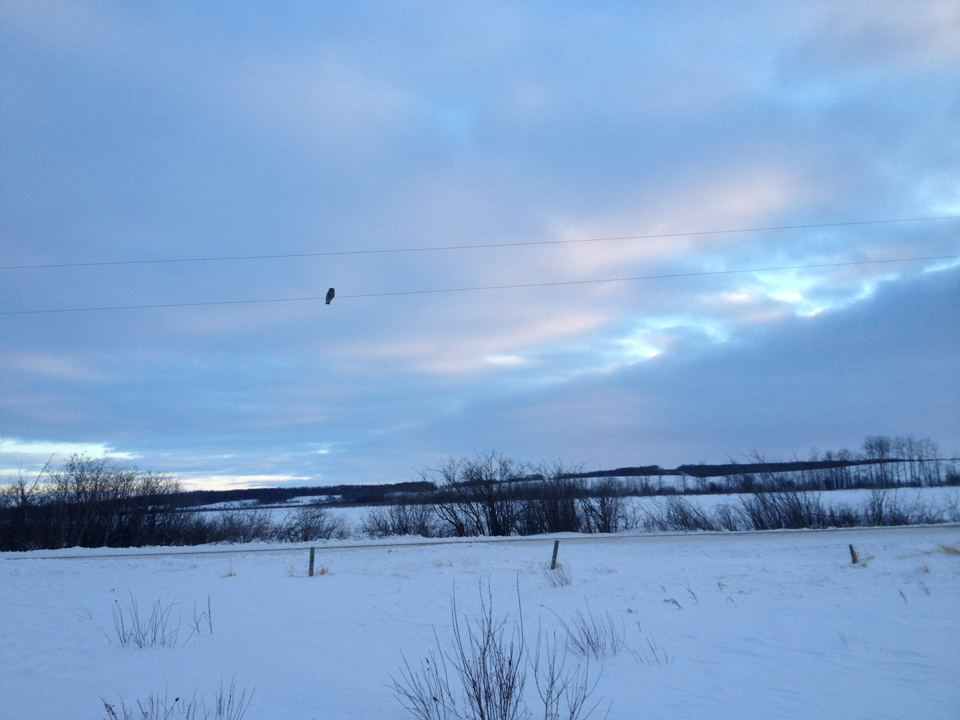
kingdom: Animalia
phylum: Chordata
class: Aves
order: Strigiformes
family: Strigidae
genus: Strix
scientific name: Strix nebulosa
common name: Great grey owl
